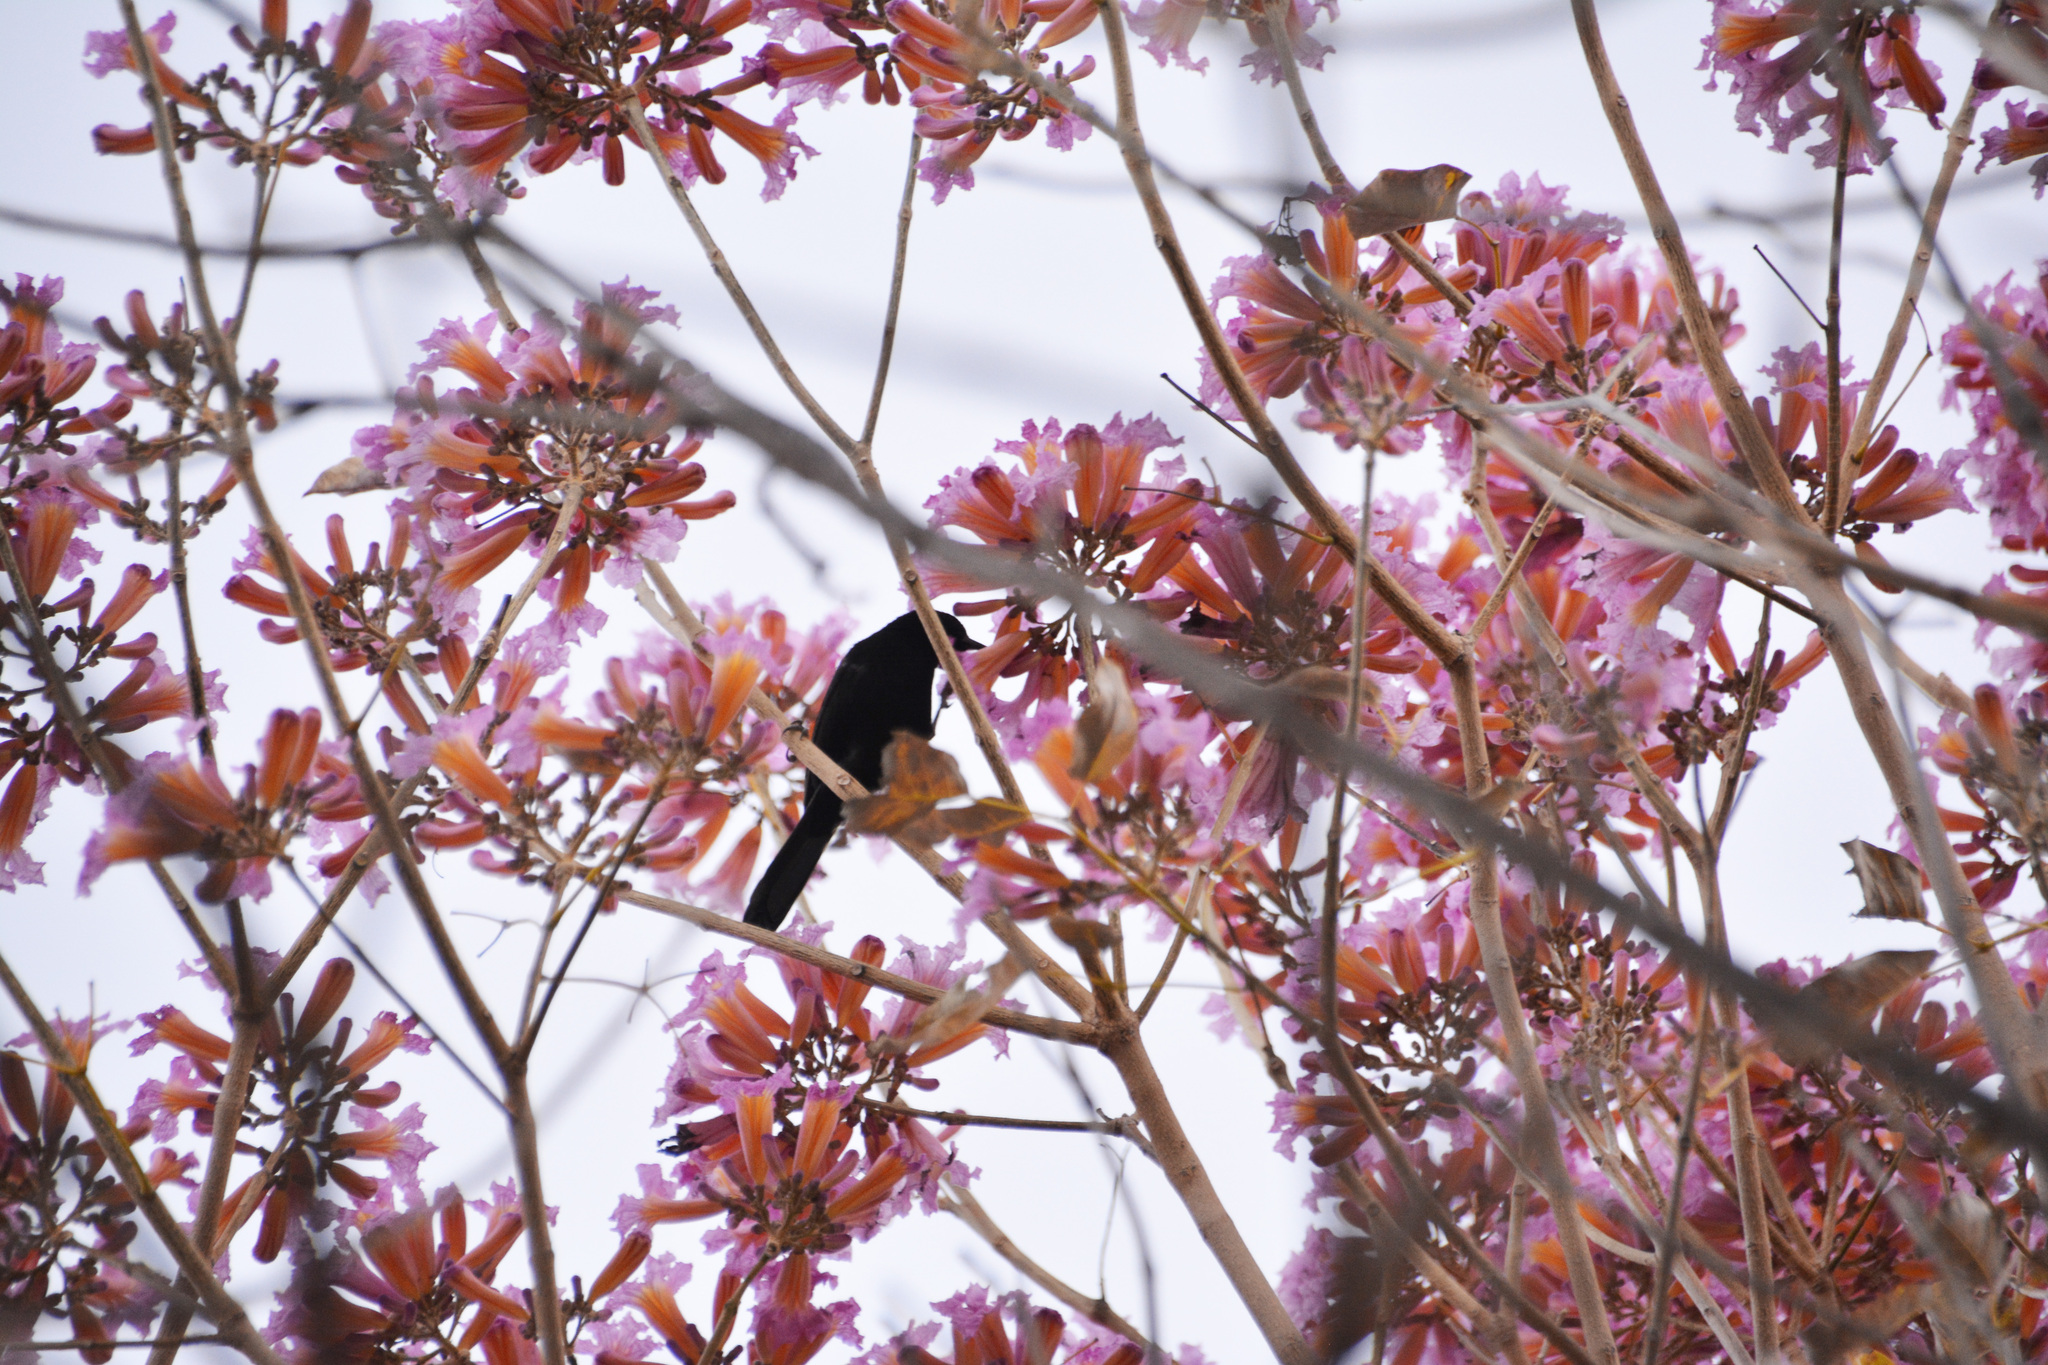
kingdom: Animalia
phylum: Chordata
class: Aves
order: Passeriformes
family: Icteridae
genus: Icterus
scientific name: Icterus cayanensis
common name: Epaulet oriole
